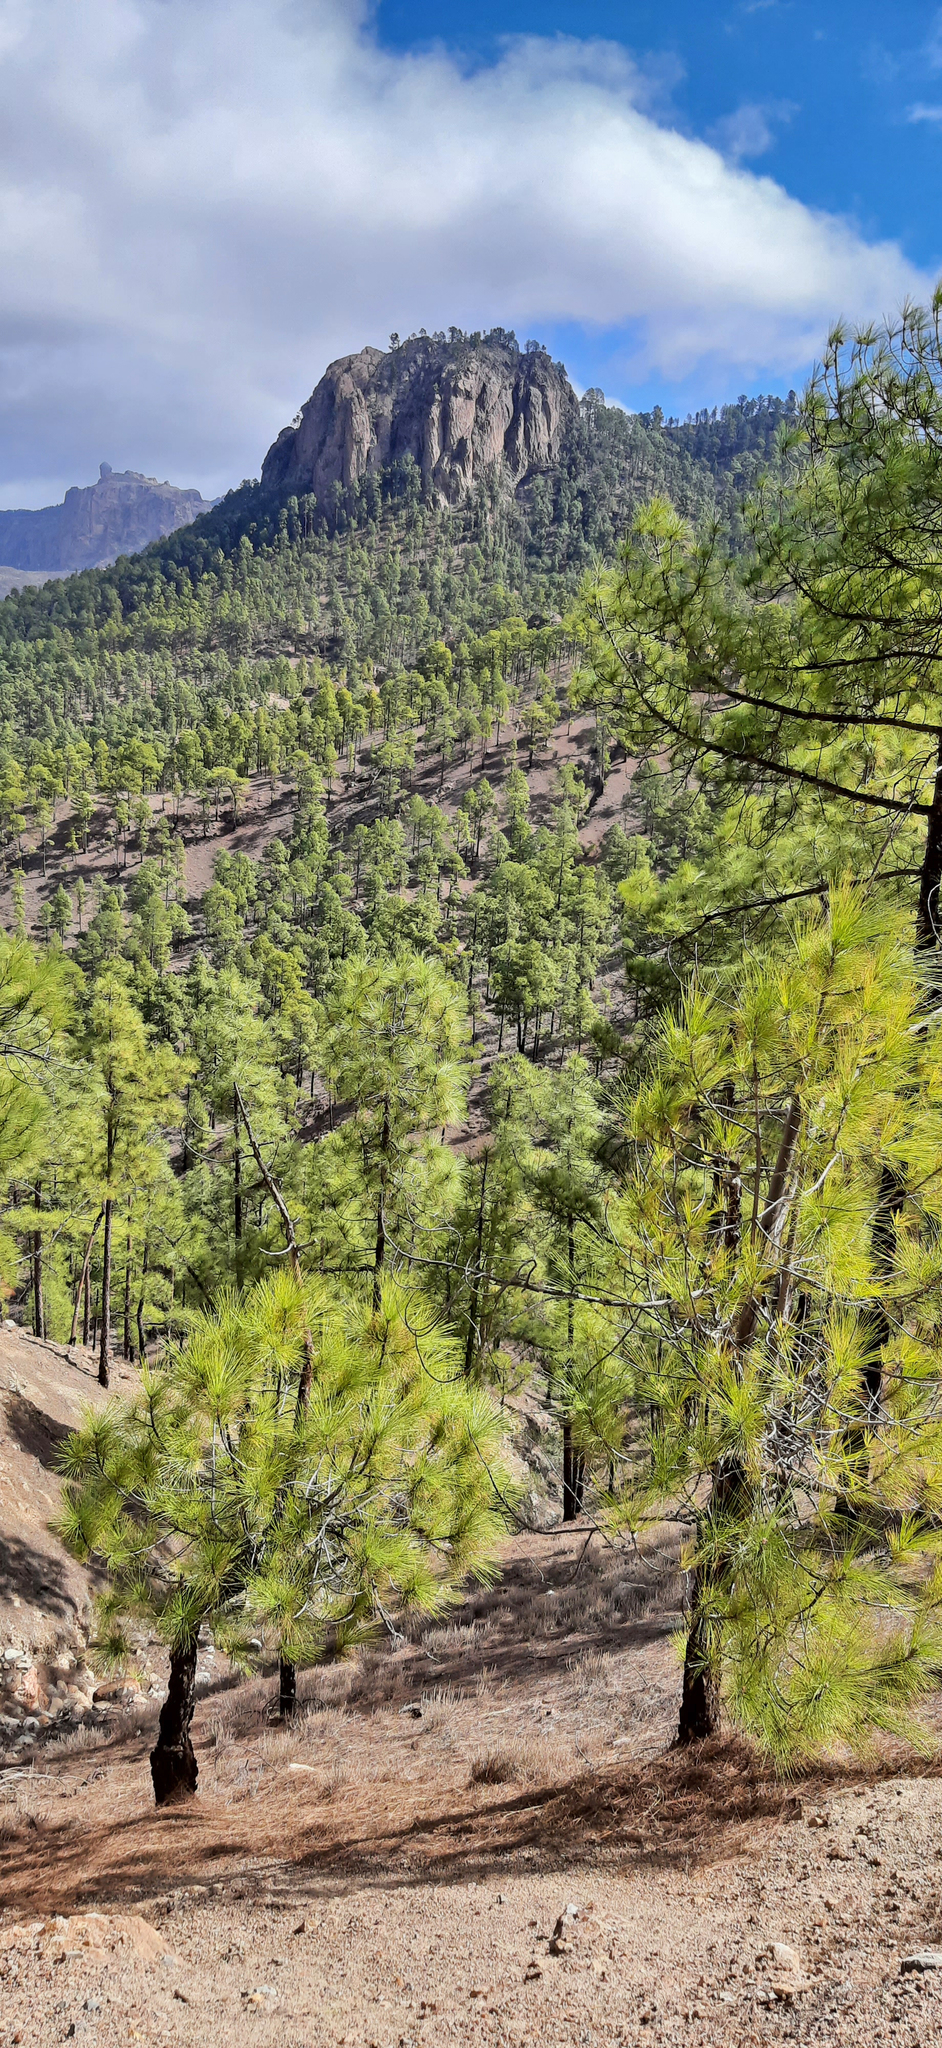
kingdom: Plantae
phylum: Tracheophyta
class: Pinopsida
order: Pinales
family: Pinaceae
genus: Pinus
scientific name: Pinus canariensis
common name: Canary islands pine
